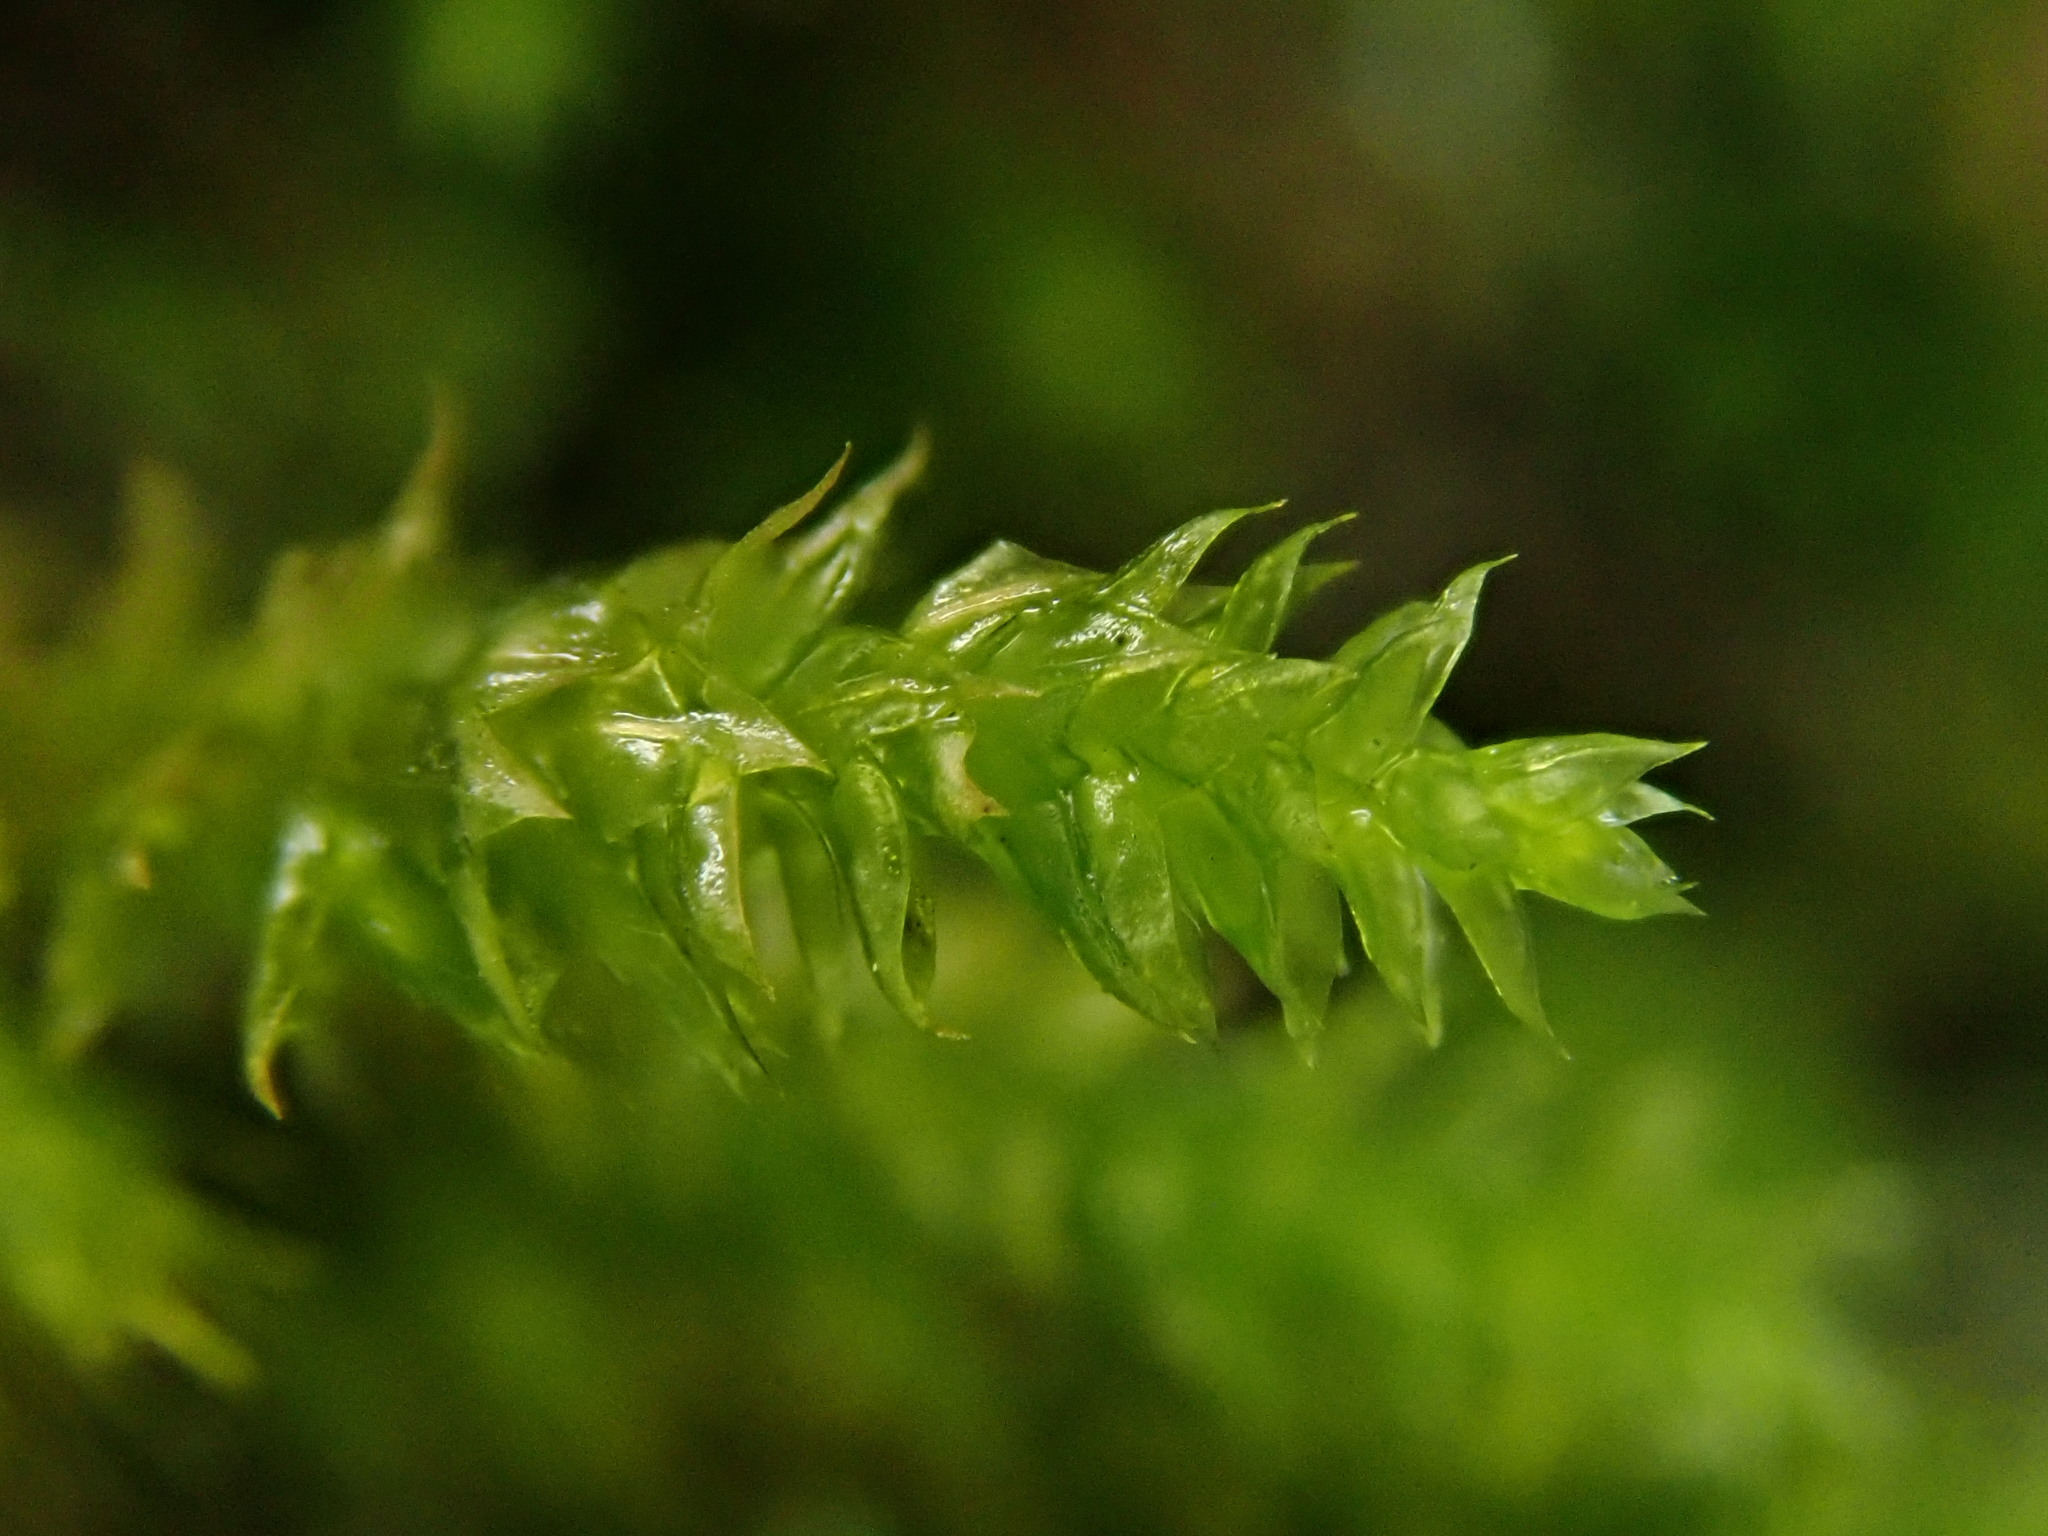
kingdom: Plantae
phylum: Bryophyta
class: Bryopsida
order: Hypnales
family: Cryphaeaceae
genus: Cryphaea
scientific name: Cryphaea heteromalla
